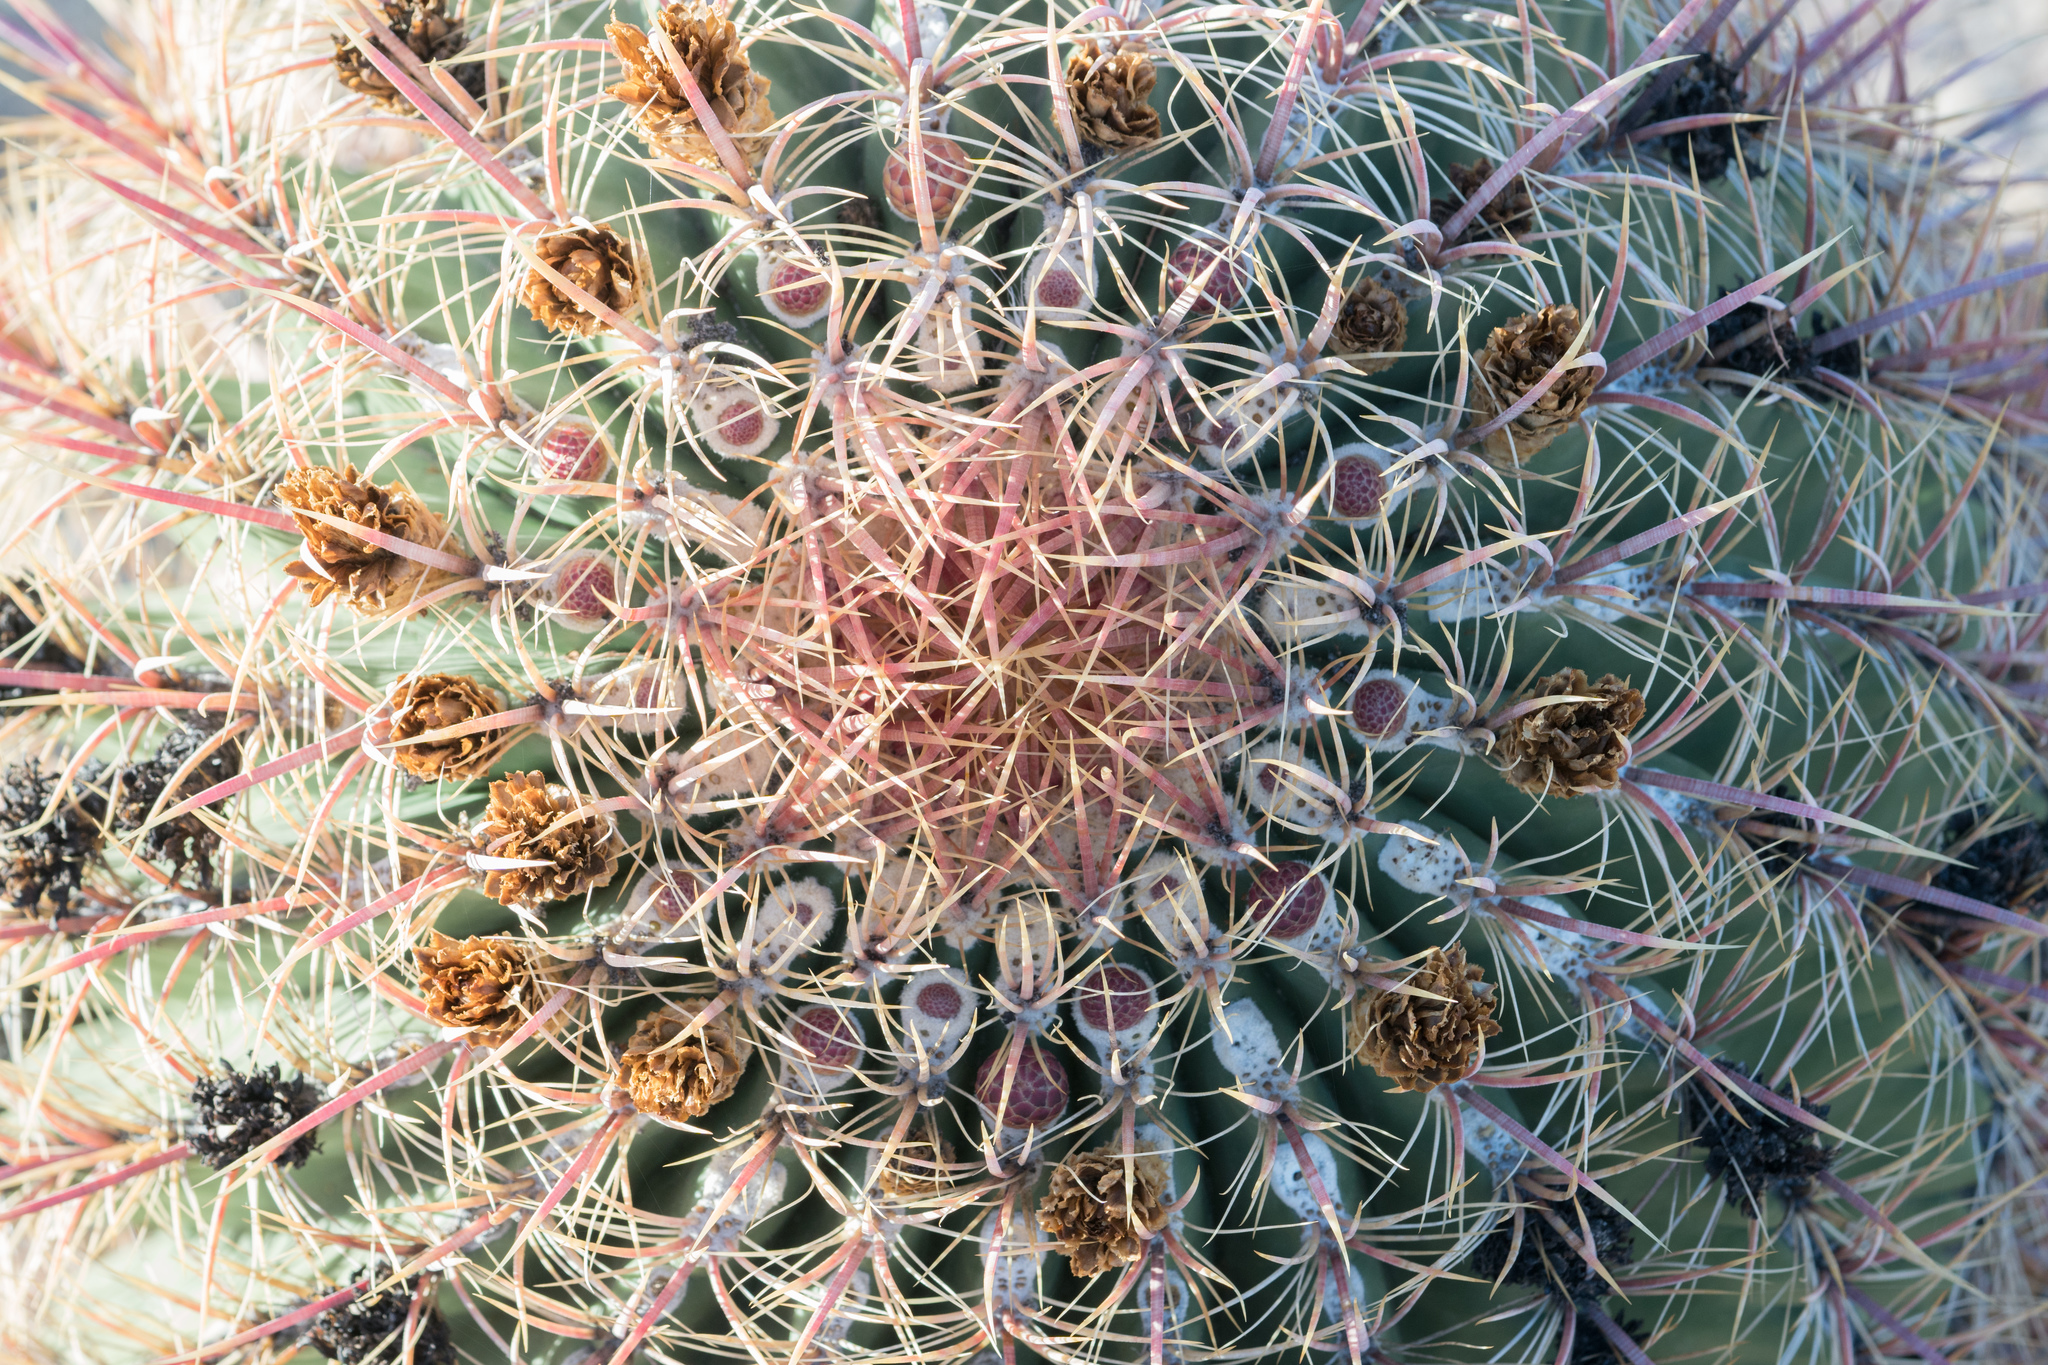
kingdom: Plantae
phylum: Tracheophyta
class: Magnoliopsida
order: Caryophyllales
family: Cactaceae
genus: Ferocactus
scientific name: Ferocactus cylindraceus
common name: California barrel cactus
